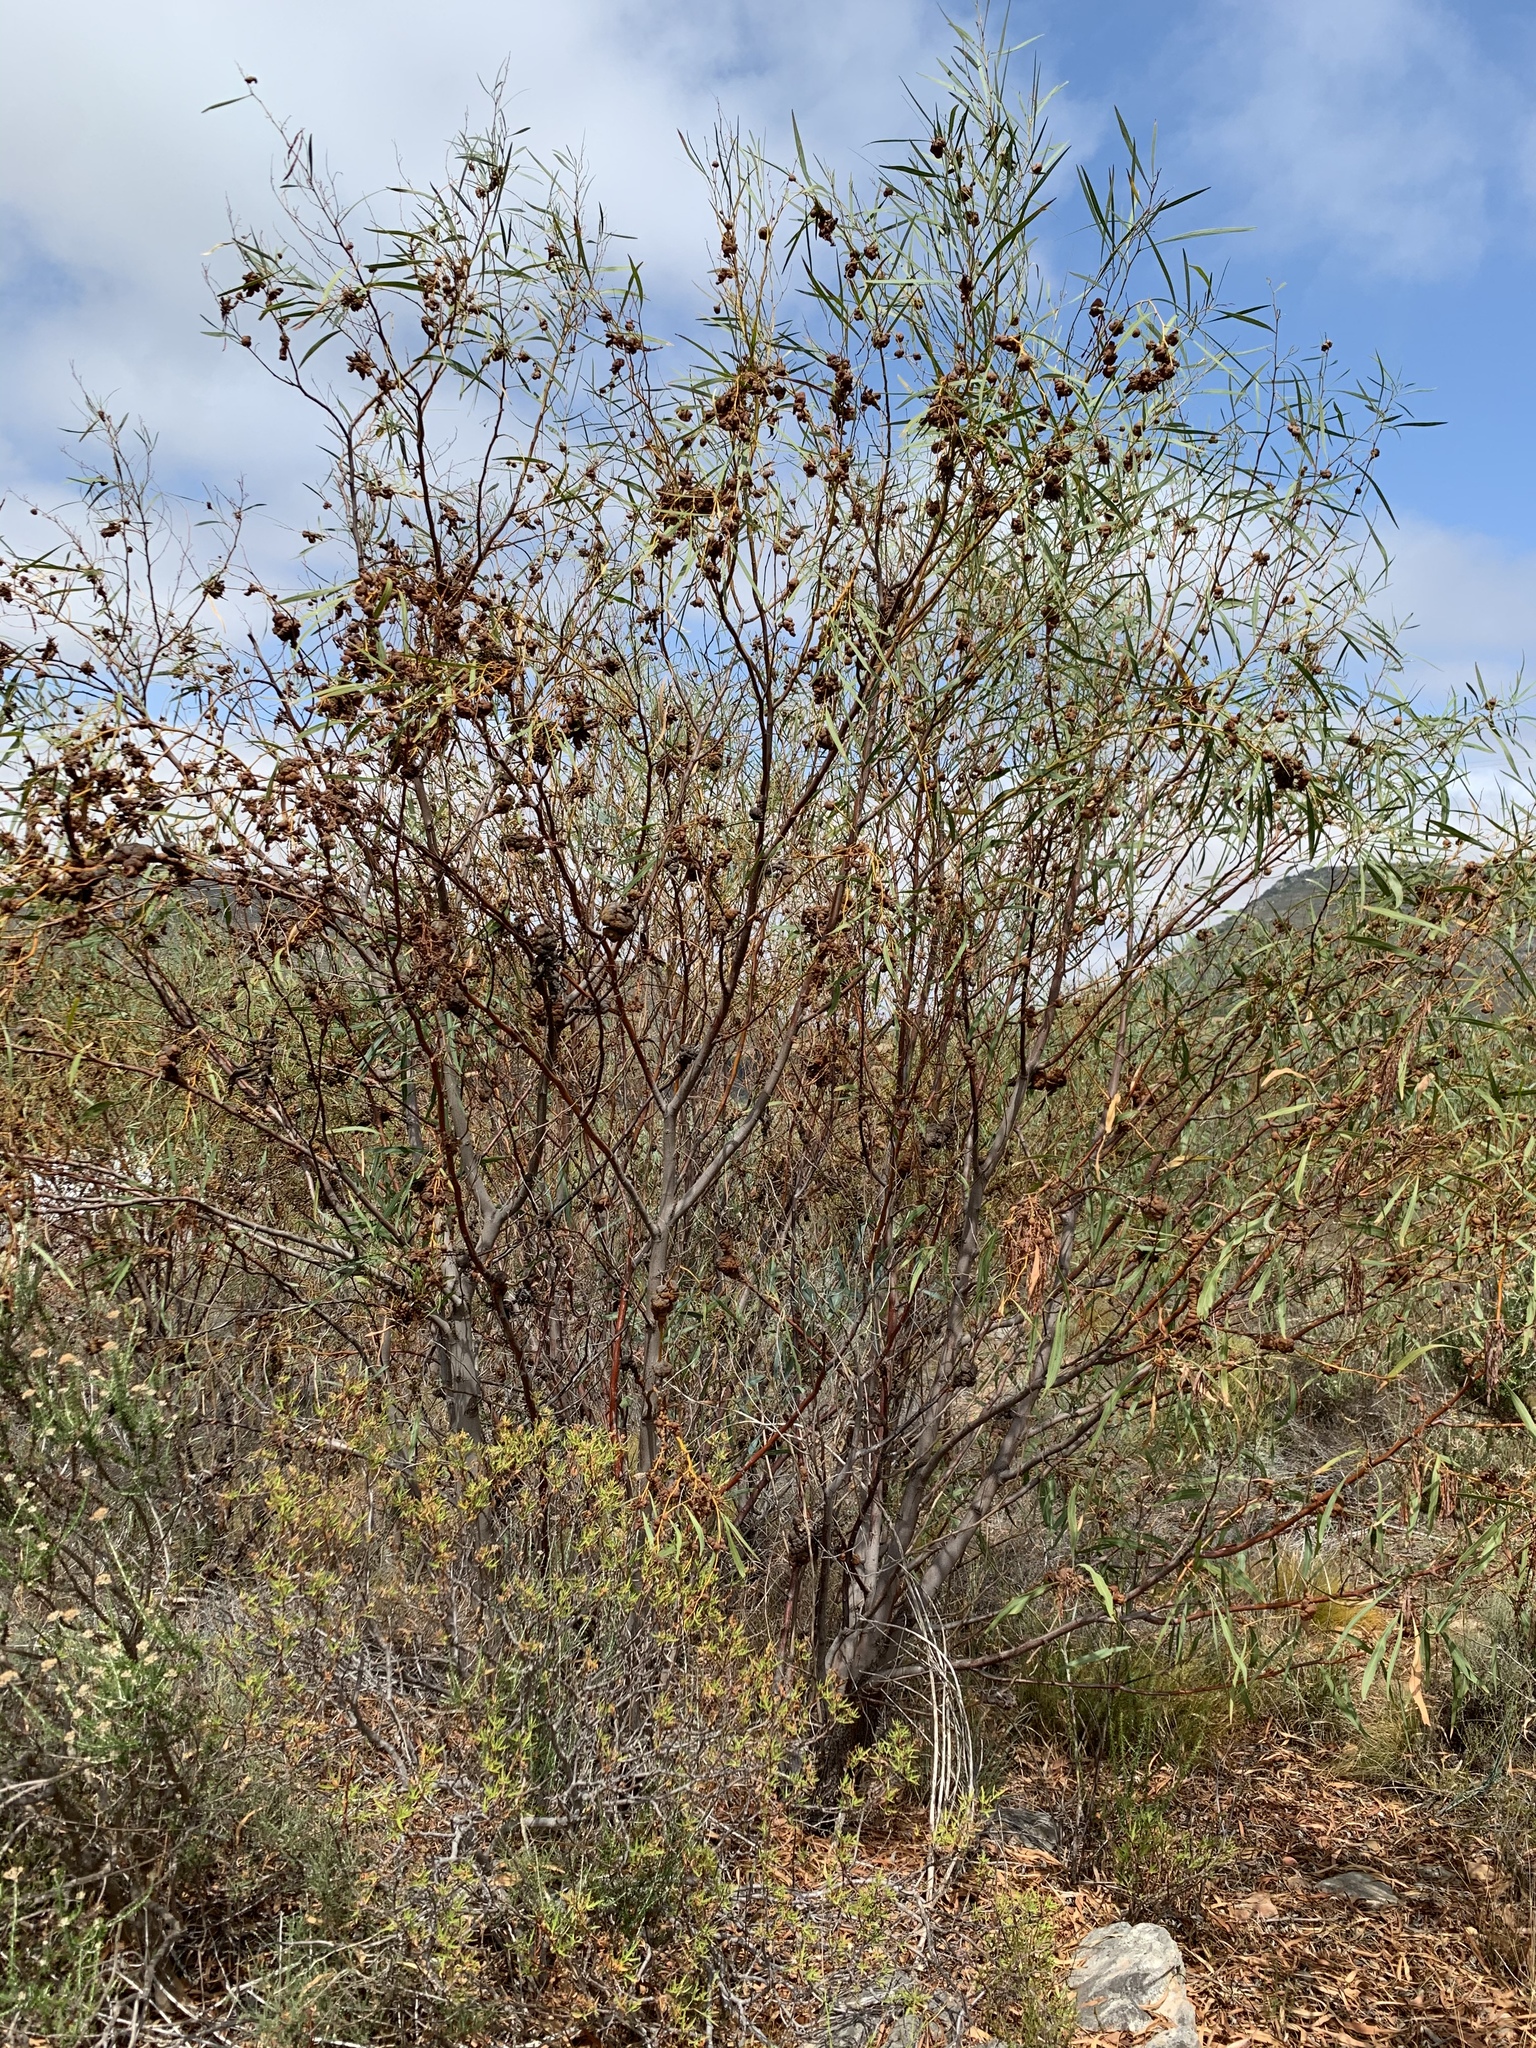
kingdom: Plantae
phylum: Tracheophyta
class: Magnoliopsida
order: Fabales
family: Fabaceae
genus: Acacia
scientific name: Acacia saligna
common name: Orange wattle
